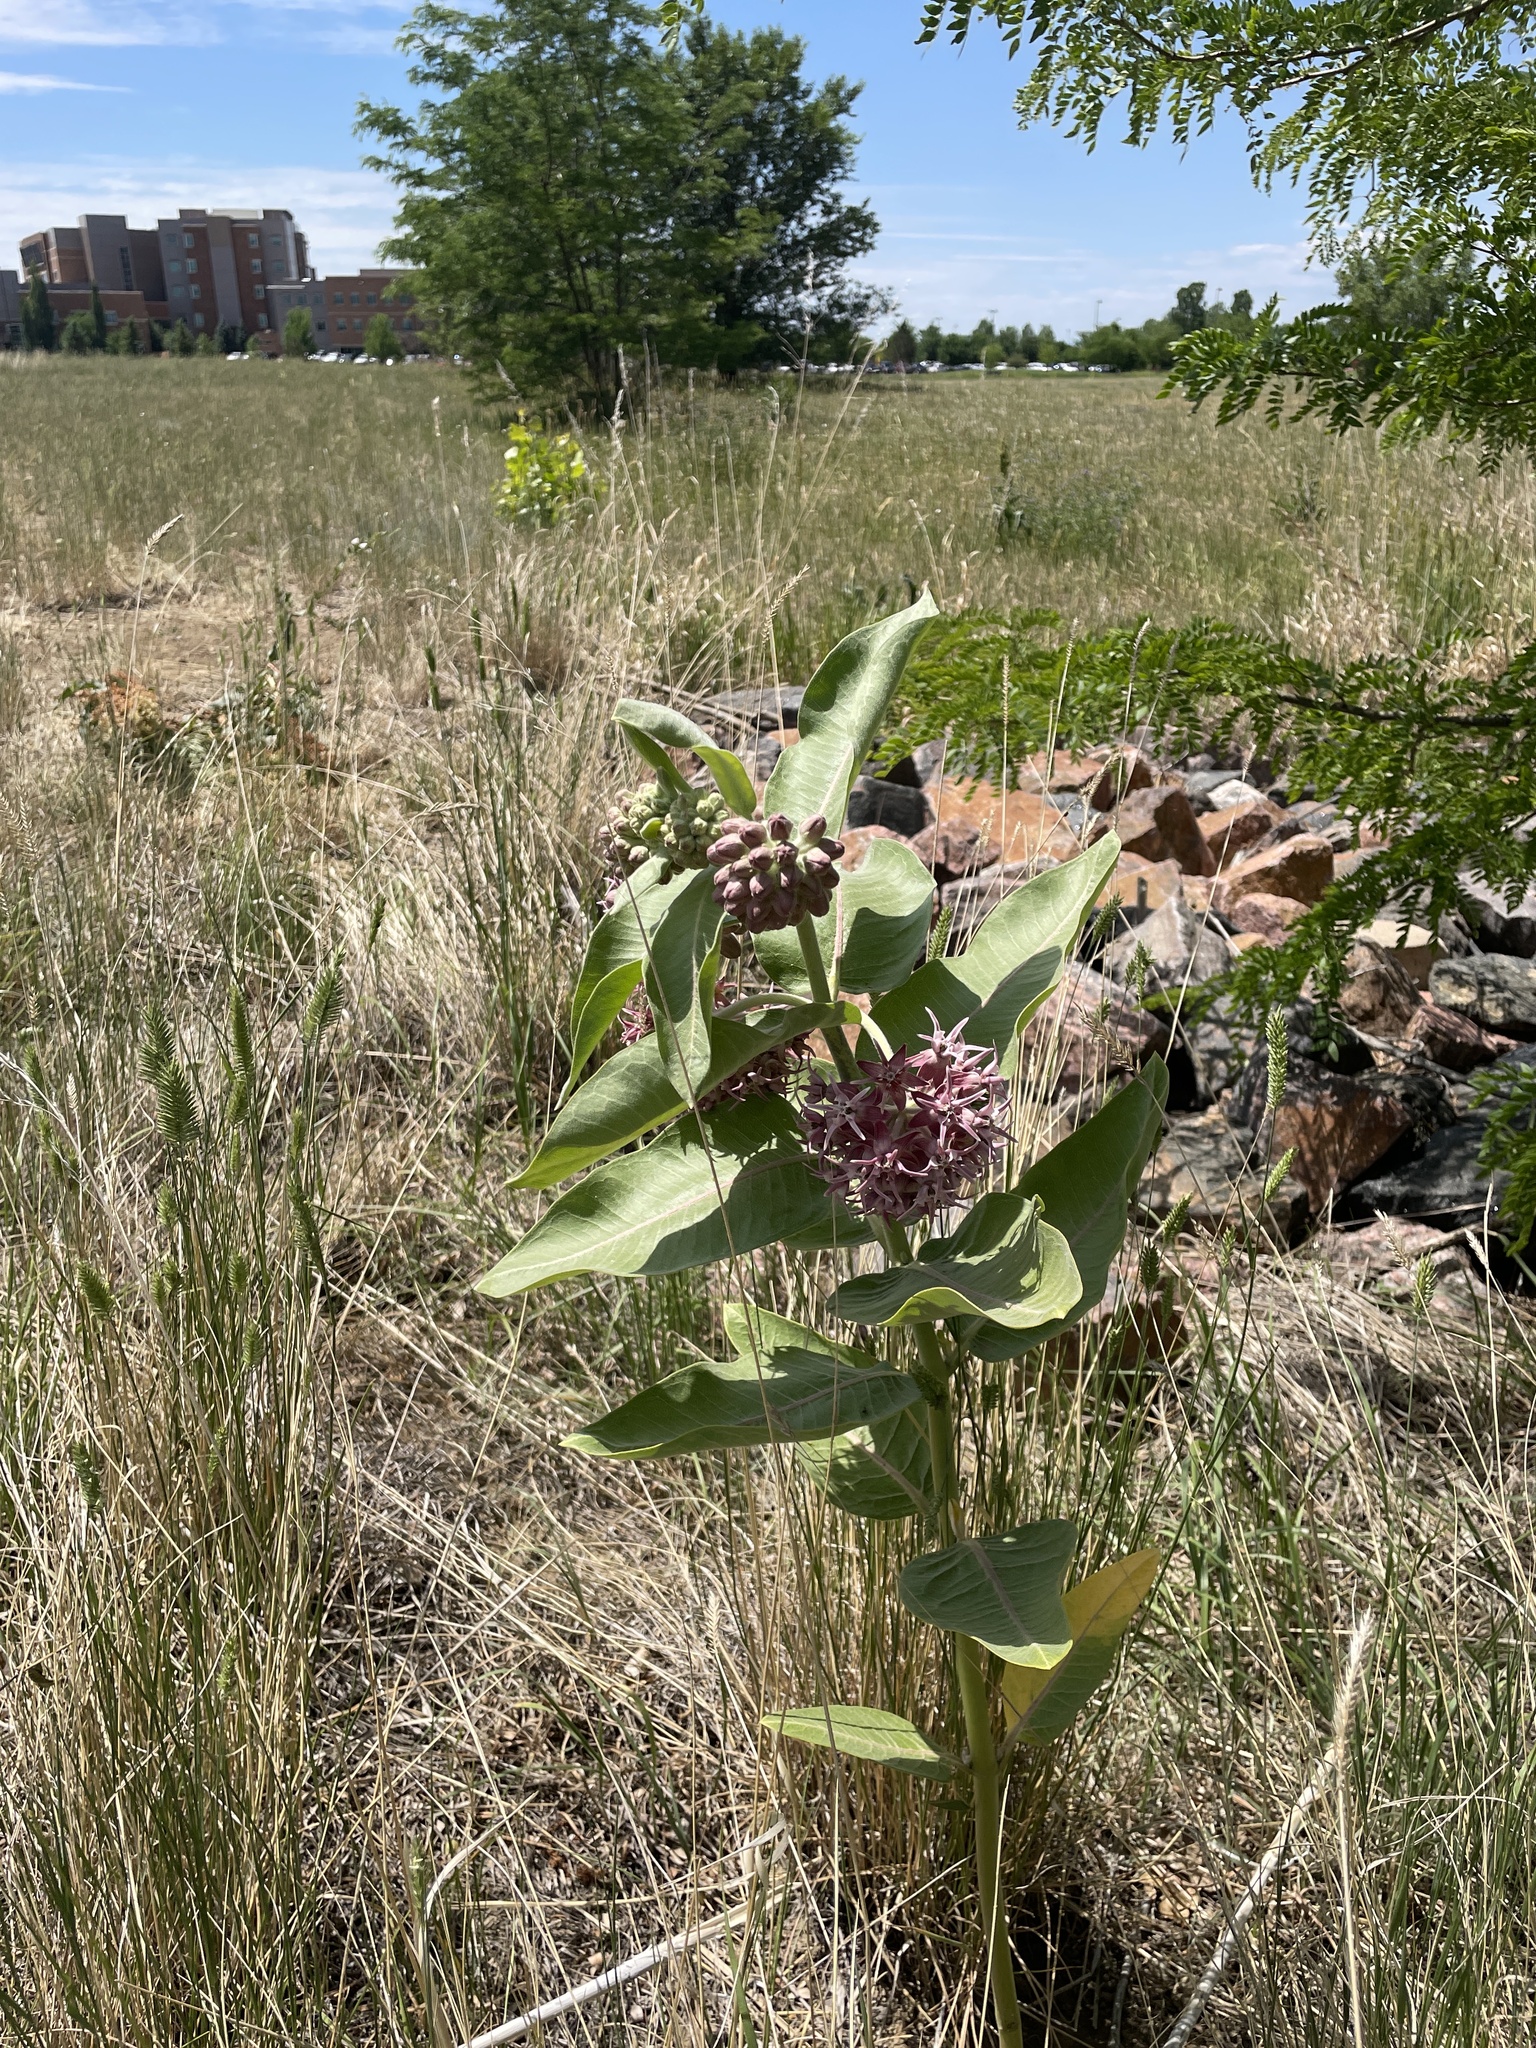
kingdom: Plantae
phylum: Tracheophyta
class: Magnoliopsida
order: Gentianales
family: Apocynaceae
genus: Asclepias
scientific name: Asclepias speciosa
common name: Showy milkweed
